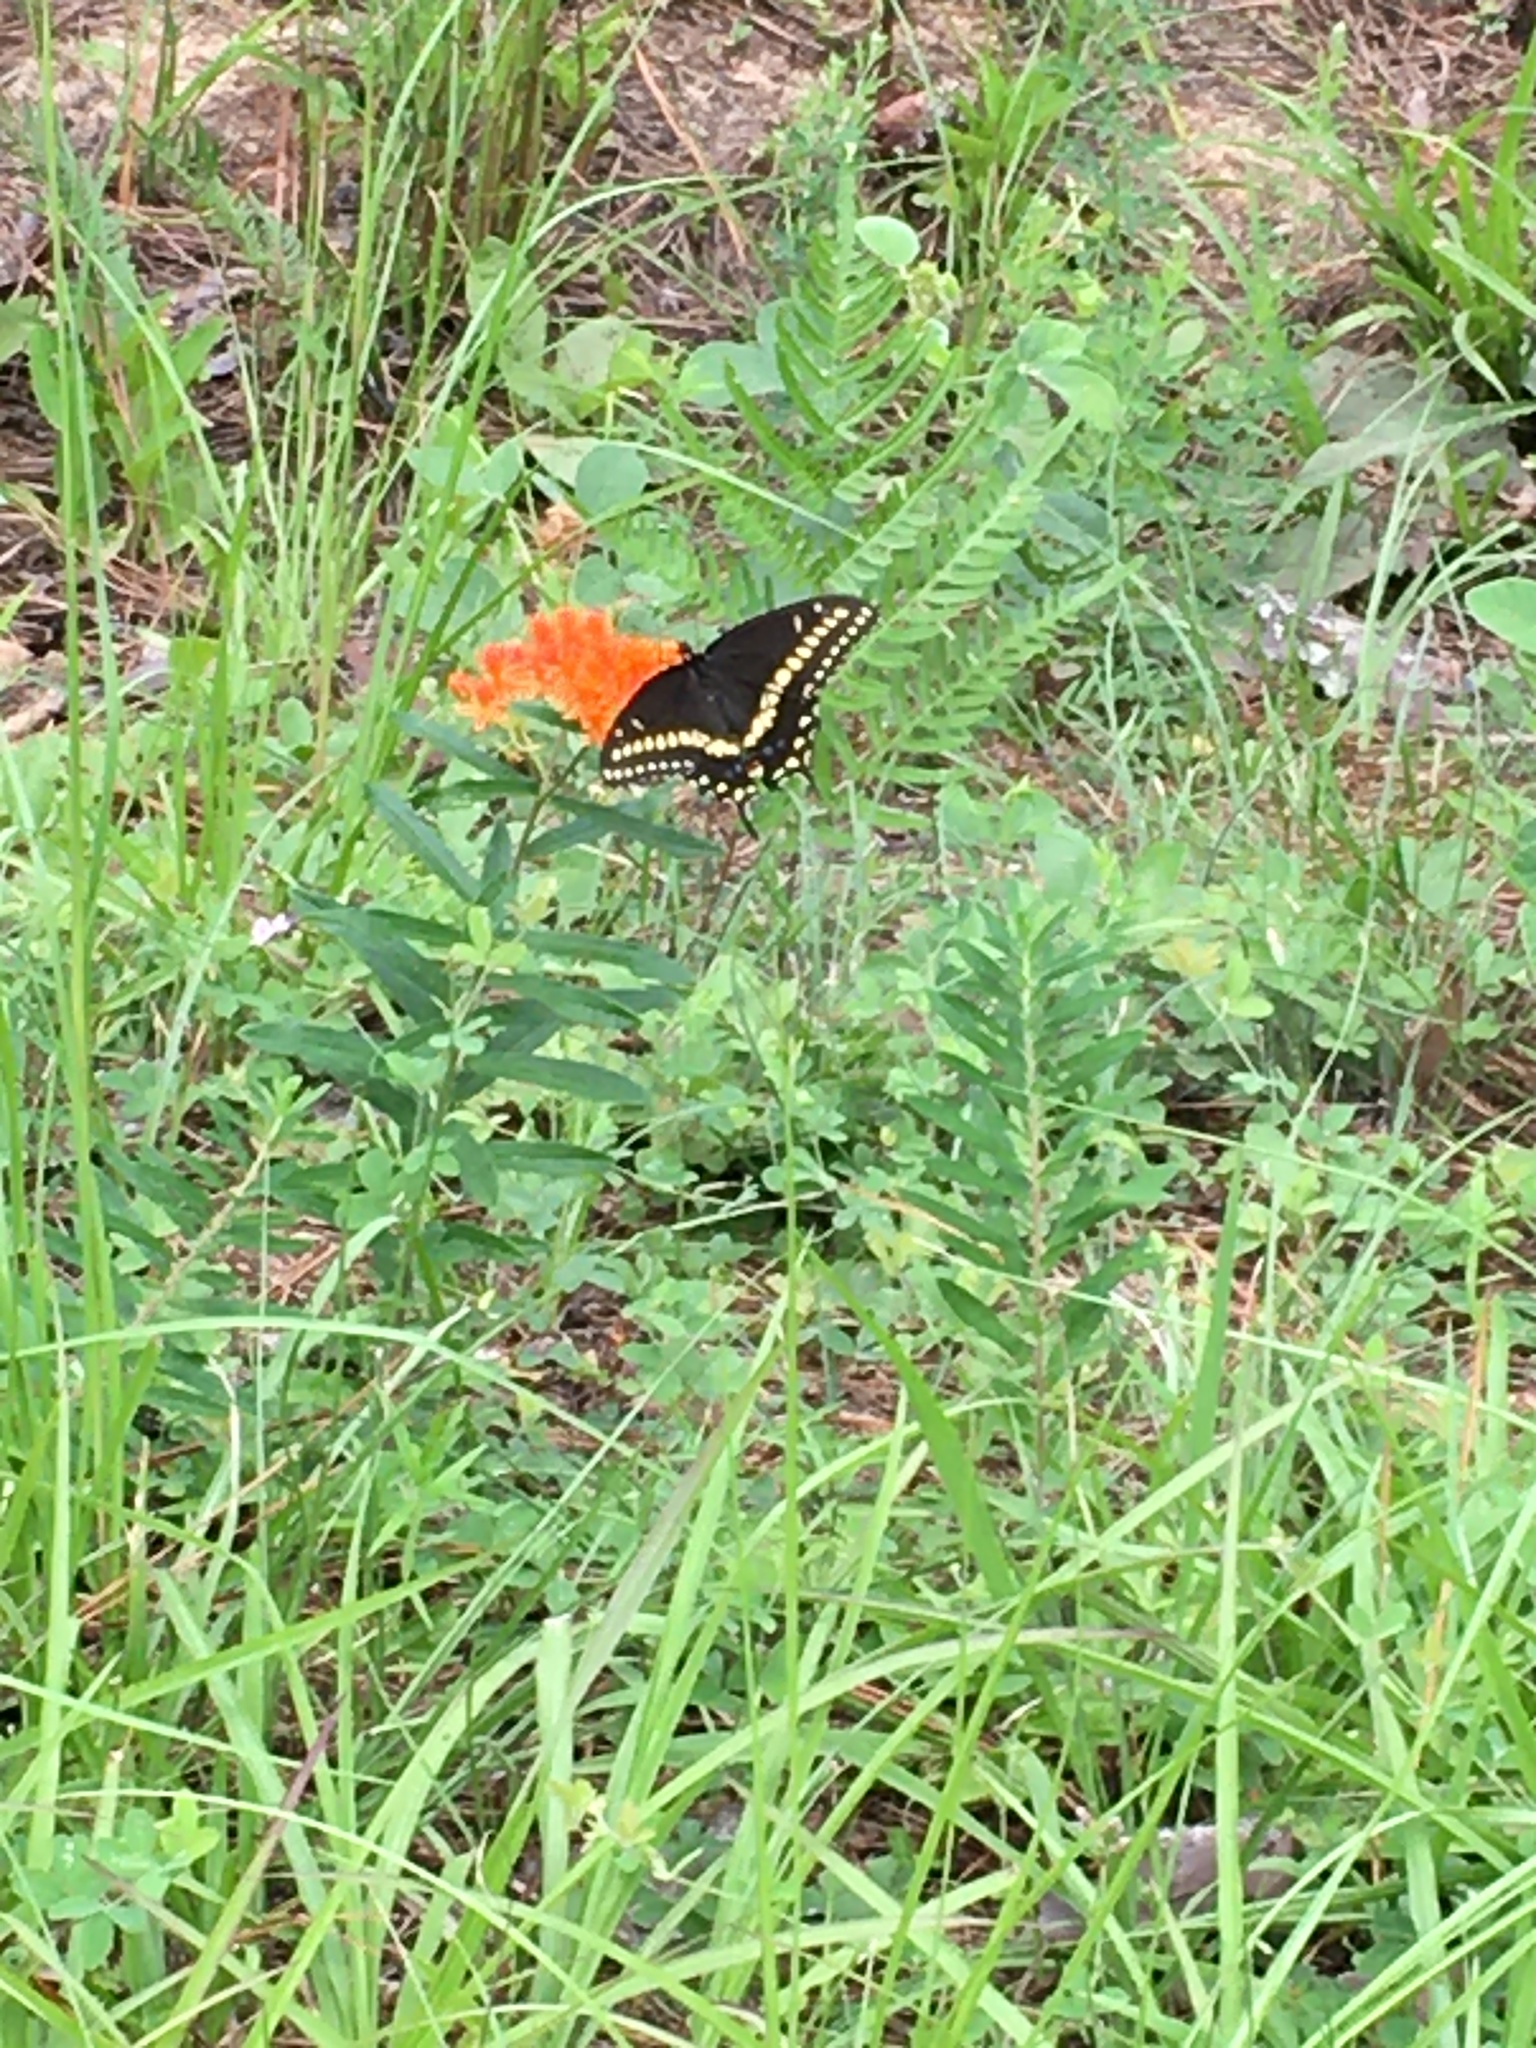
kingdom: Animalia
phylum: Arthropoda
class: Insecta
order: Lepidoptera
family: Papilionidae
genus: Papilio
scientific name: Papilio polyxenes
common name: Black swallowtail
